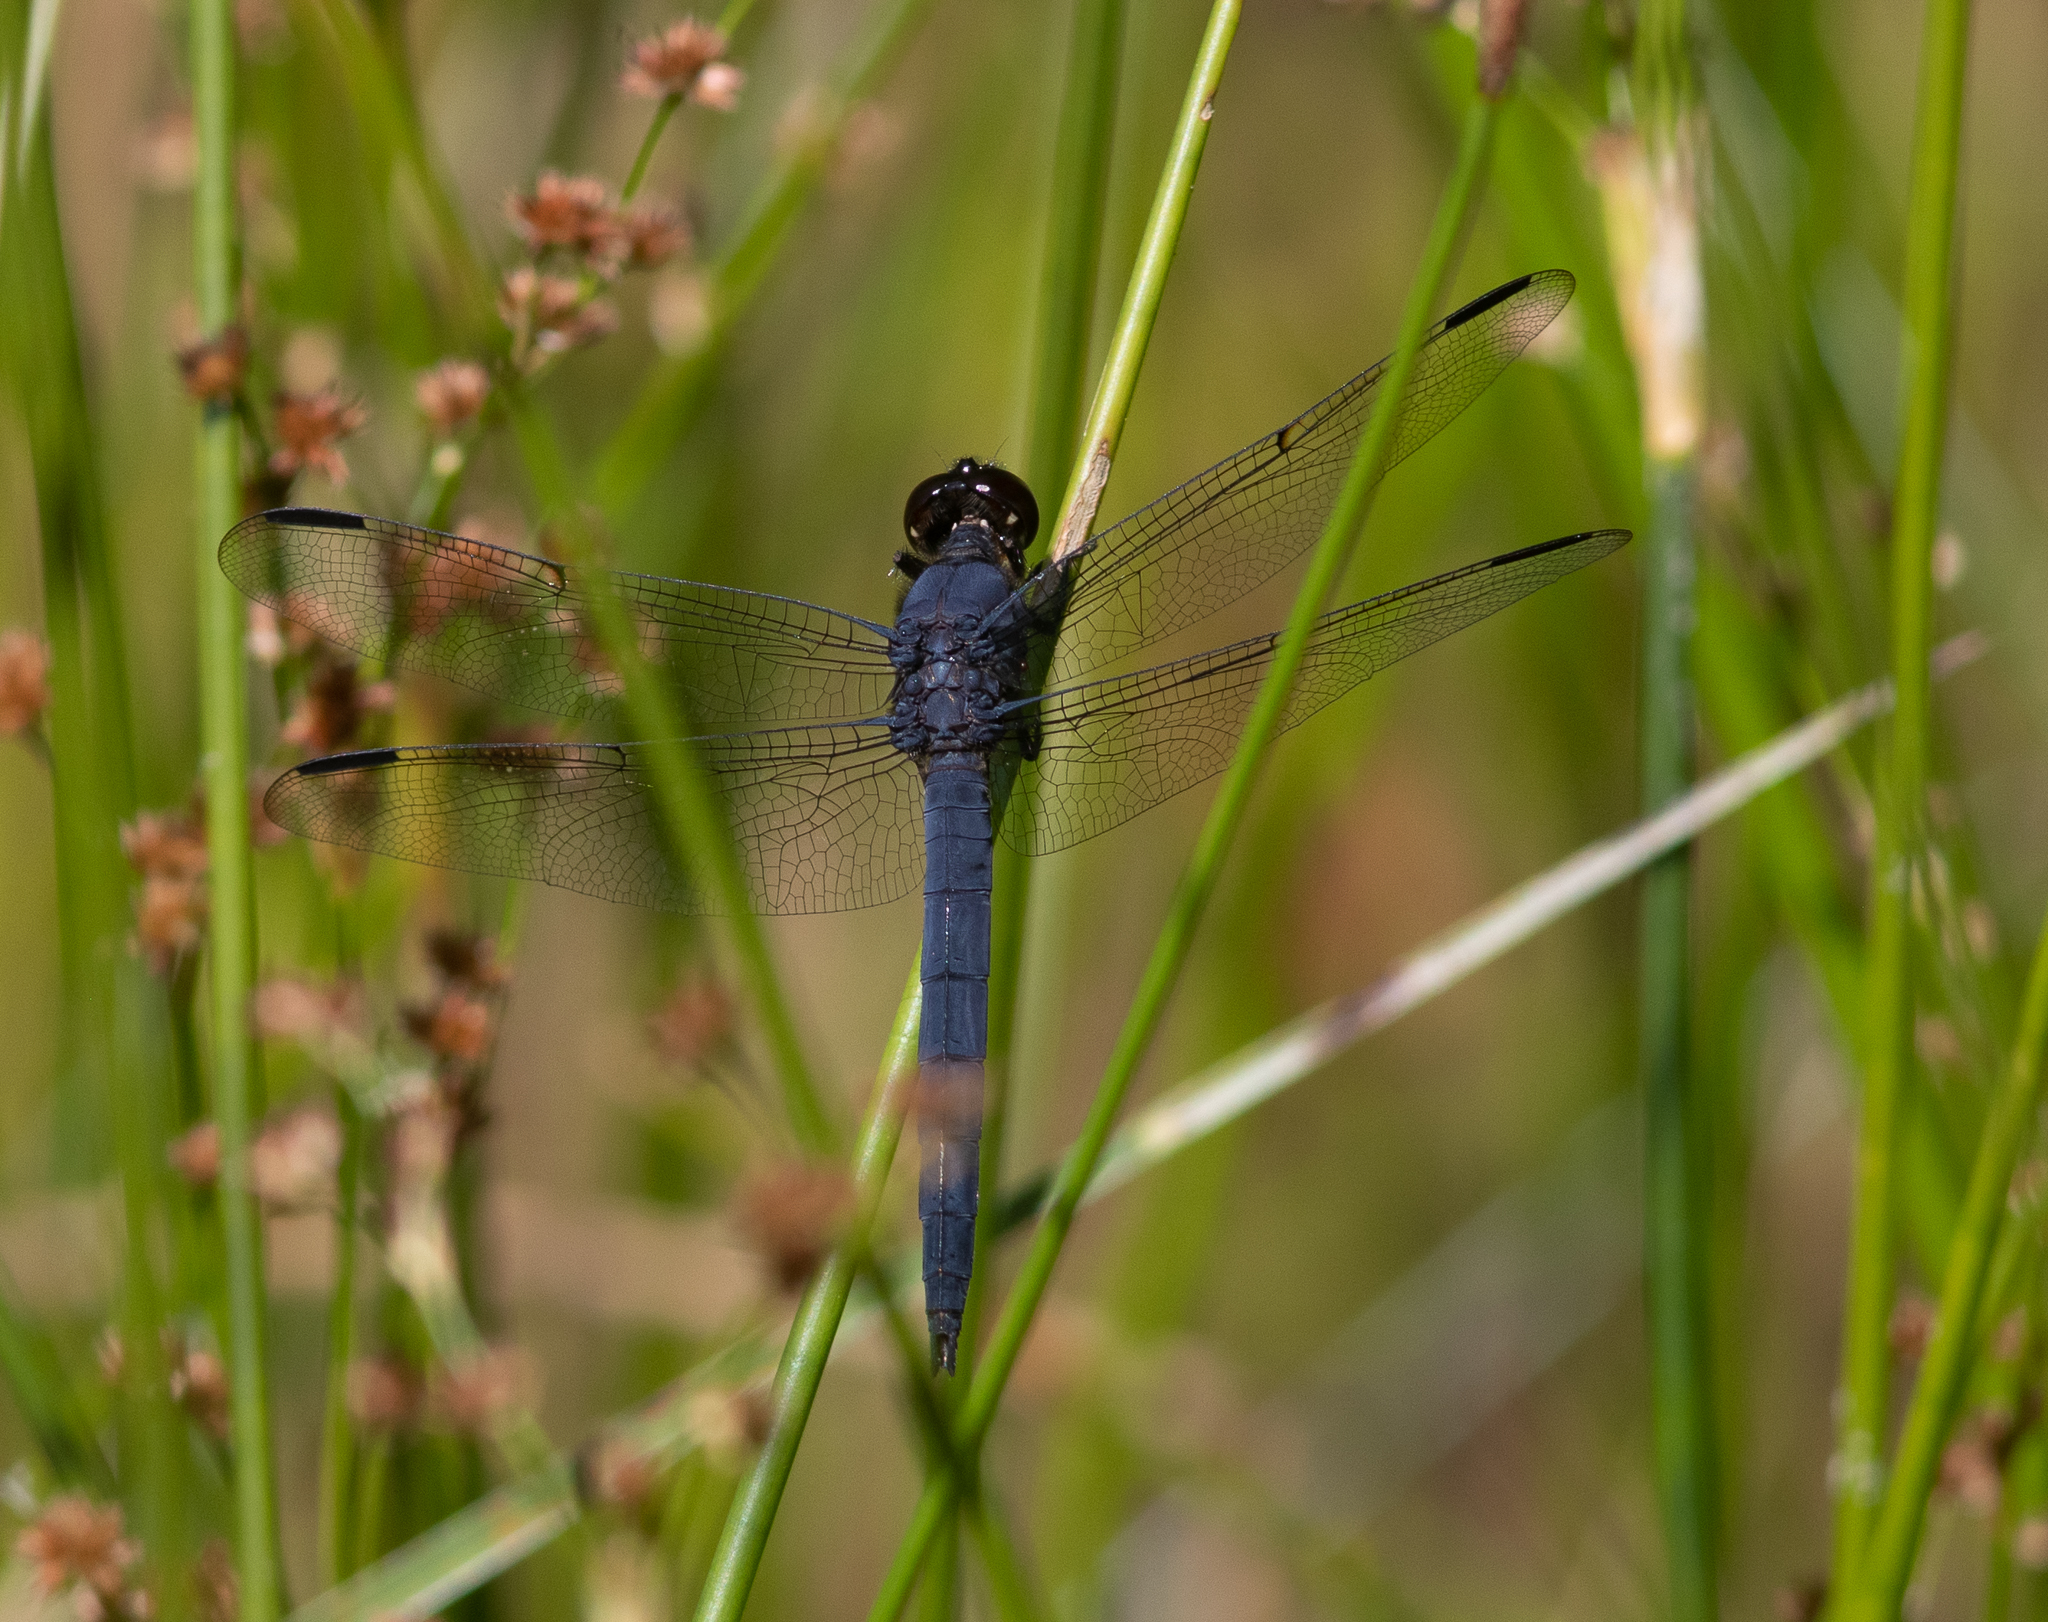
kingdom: Animalia
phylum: Arthropoda
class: Insecta
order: Odonata
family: Libellulidae
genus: Libellula
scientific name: Libellula incesta
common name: Slaty skimmer
